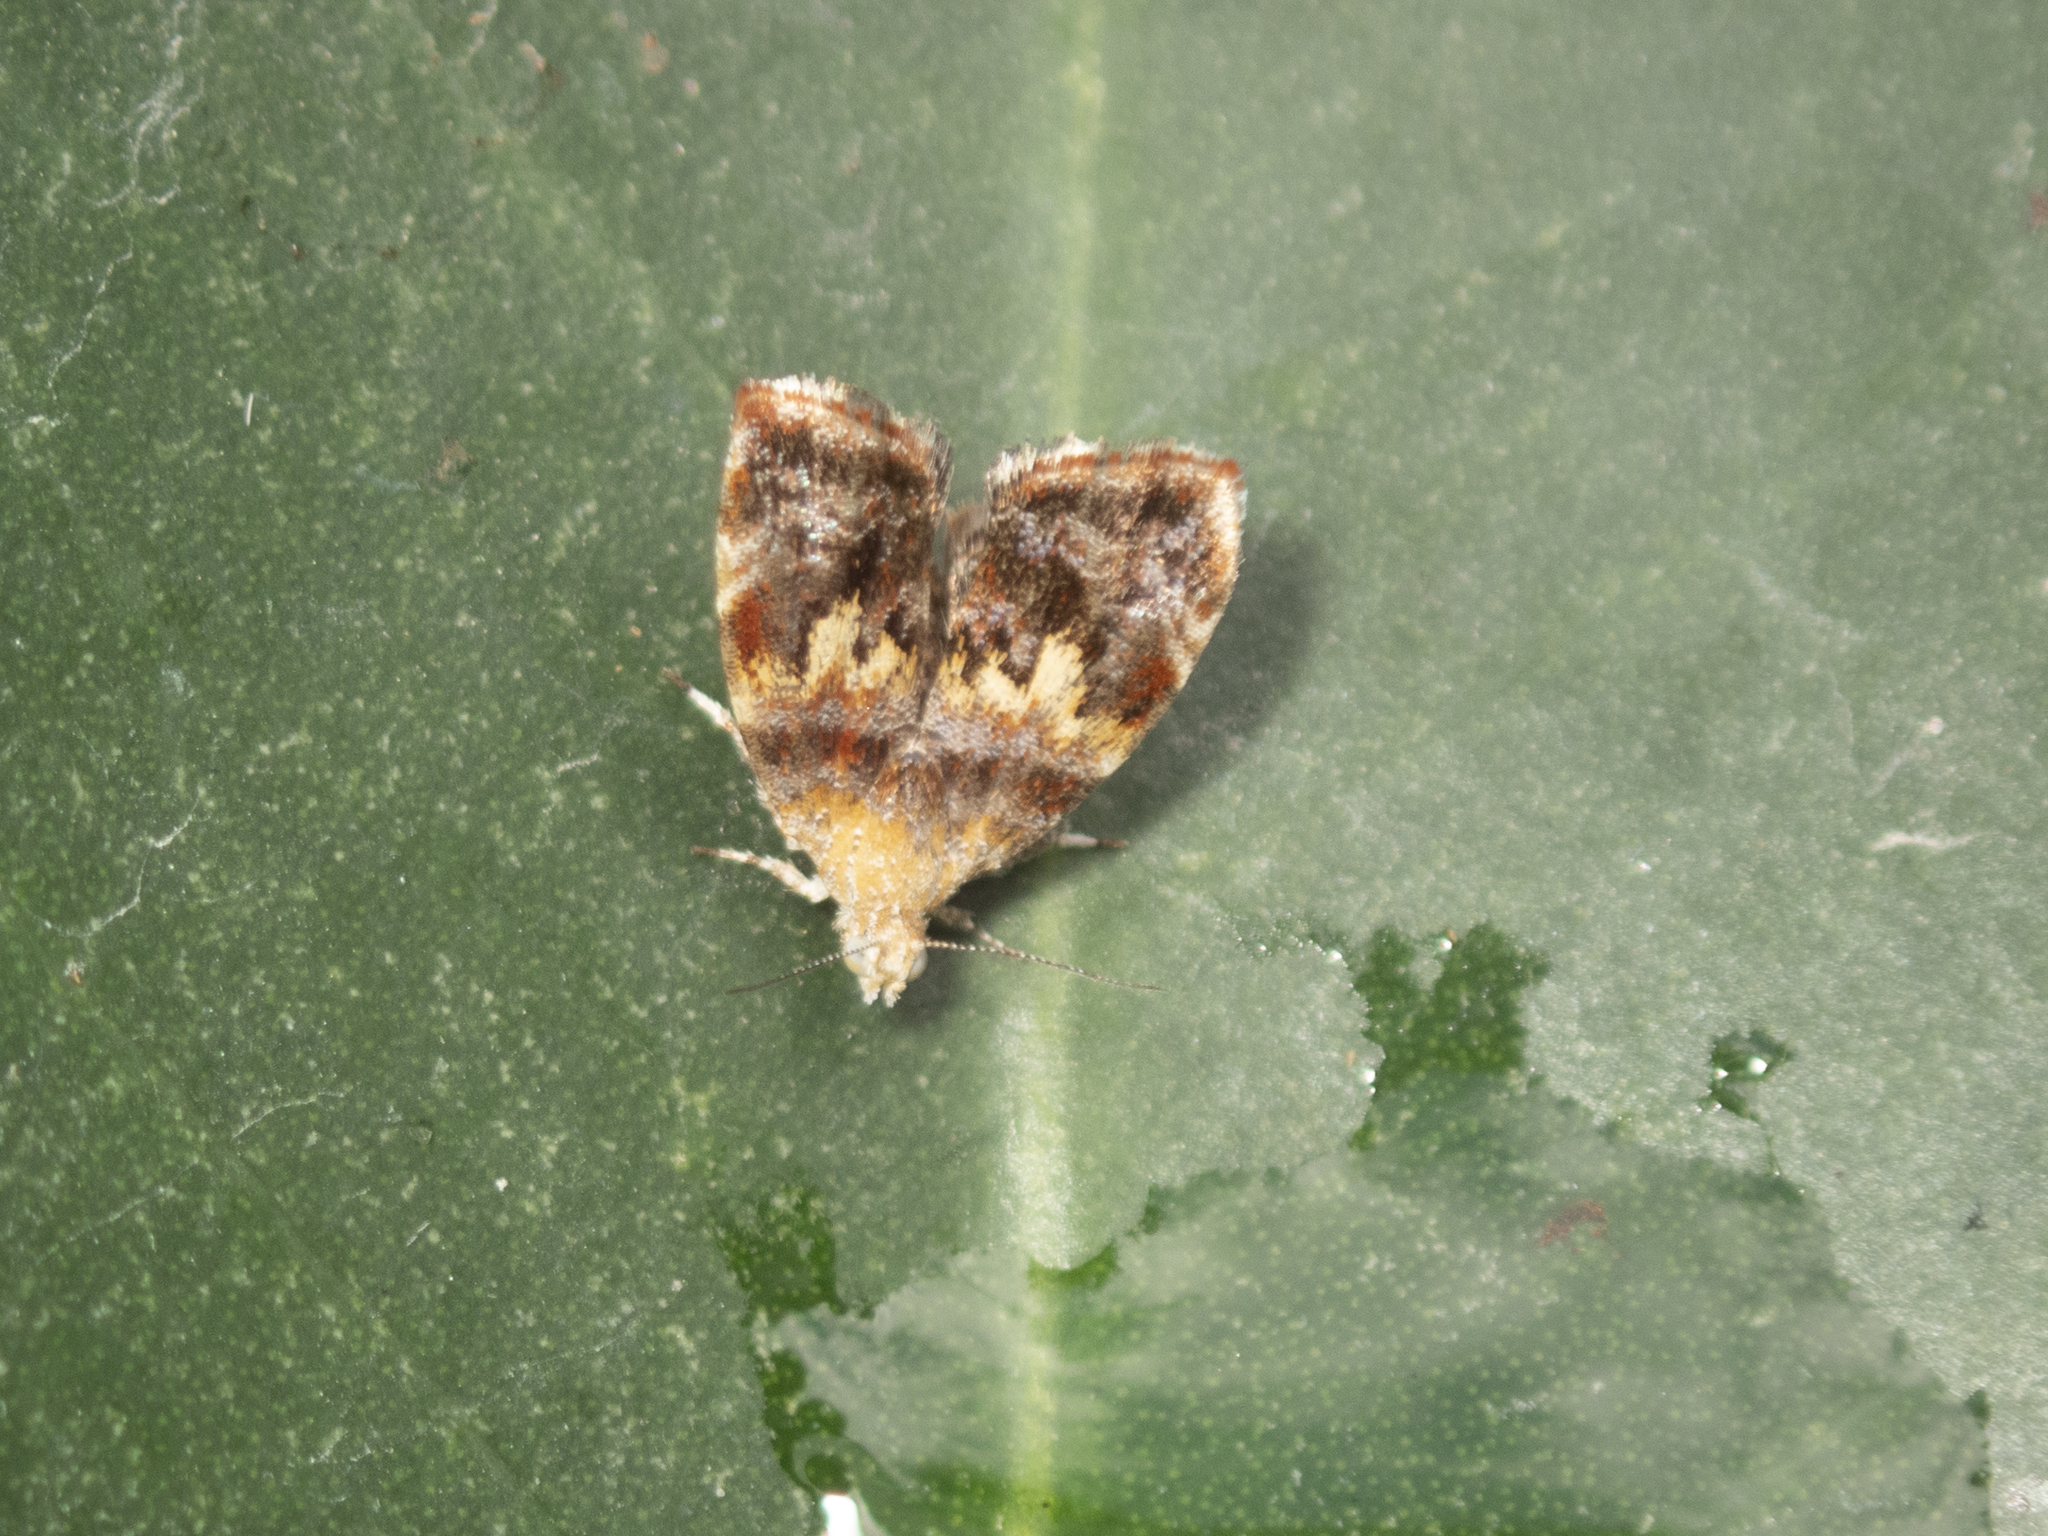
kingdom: Animalia
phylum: Arthropoda
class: Insecta
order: Lepidoptera
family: Choreutidae
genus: Choreutis
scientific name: Choreutis sexfasciella
